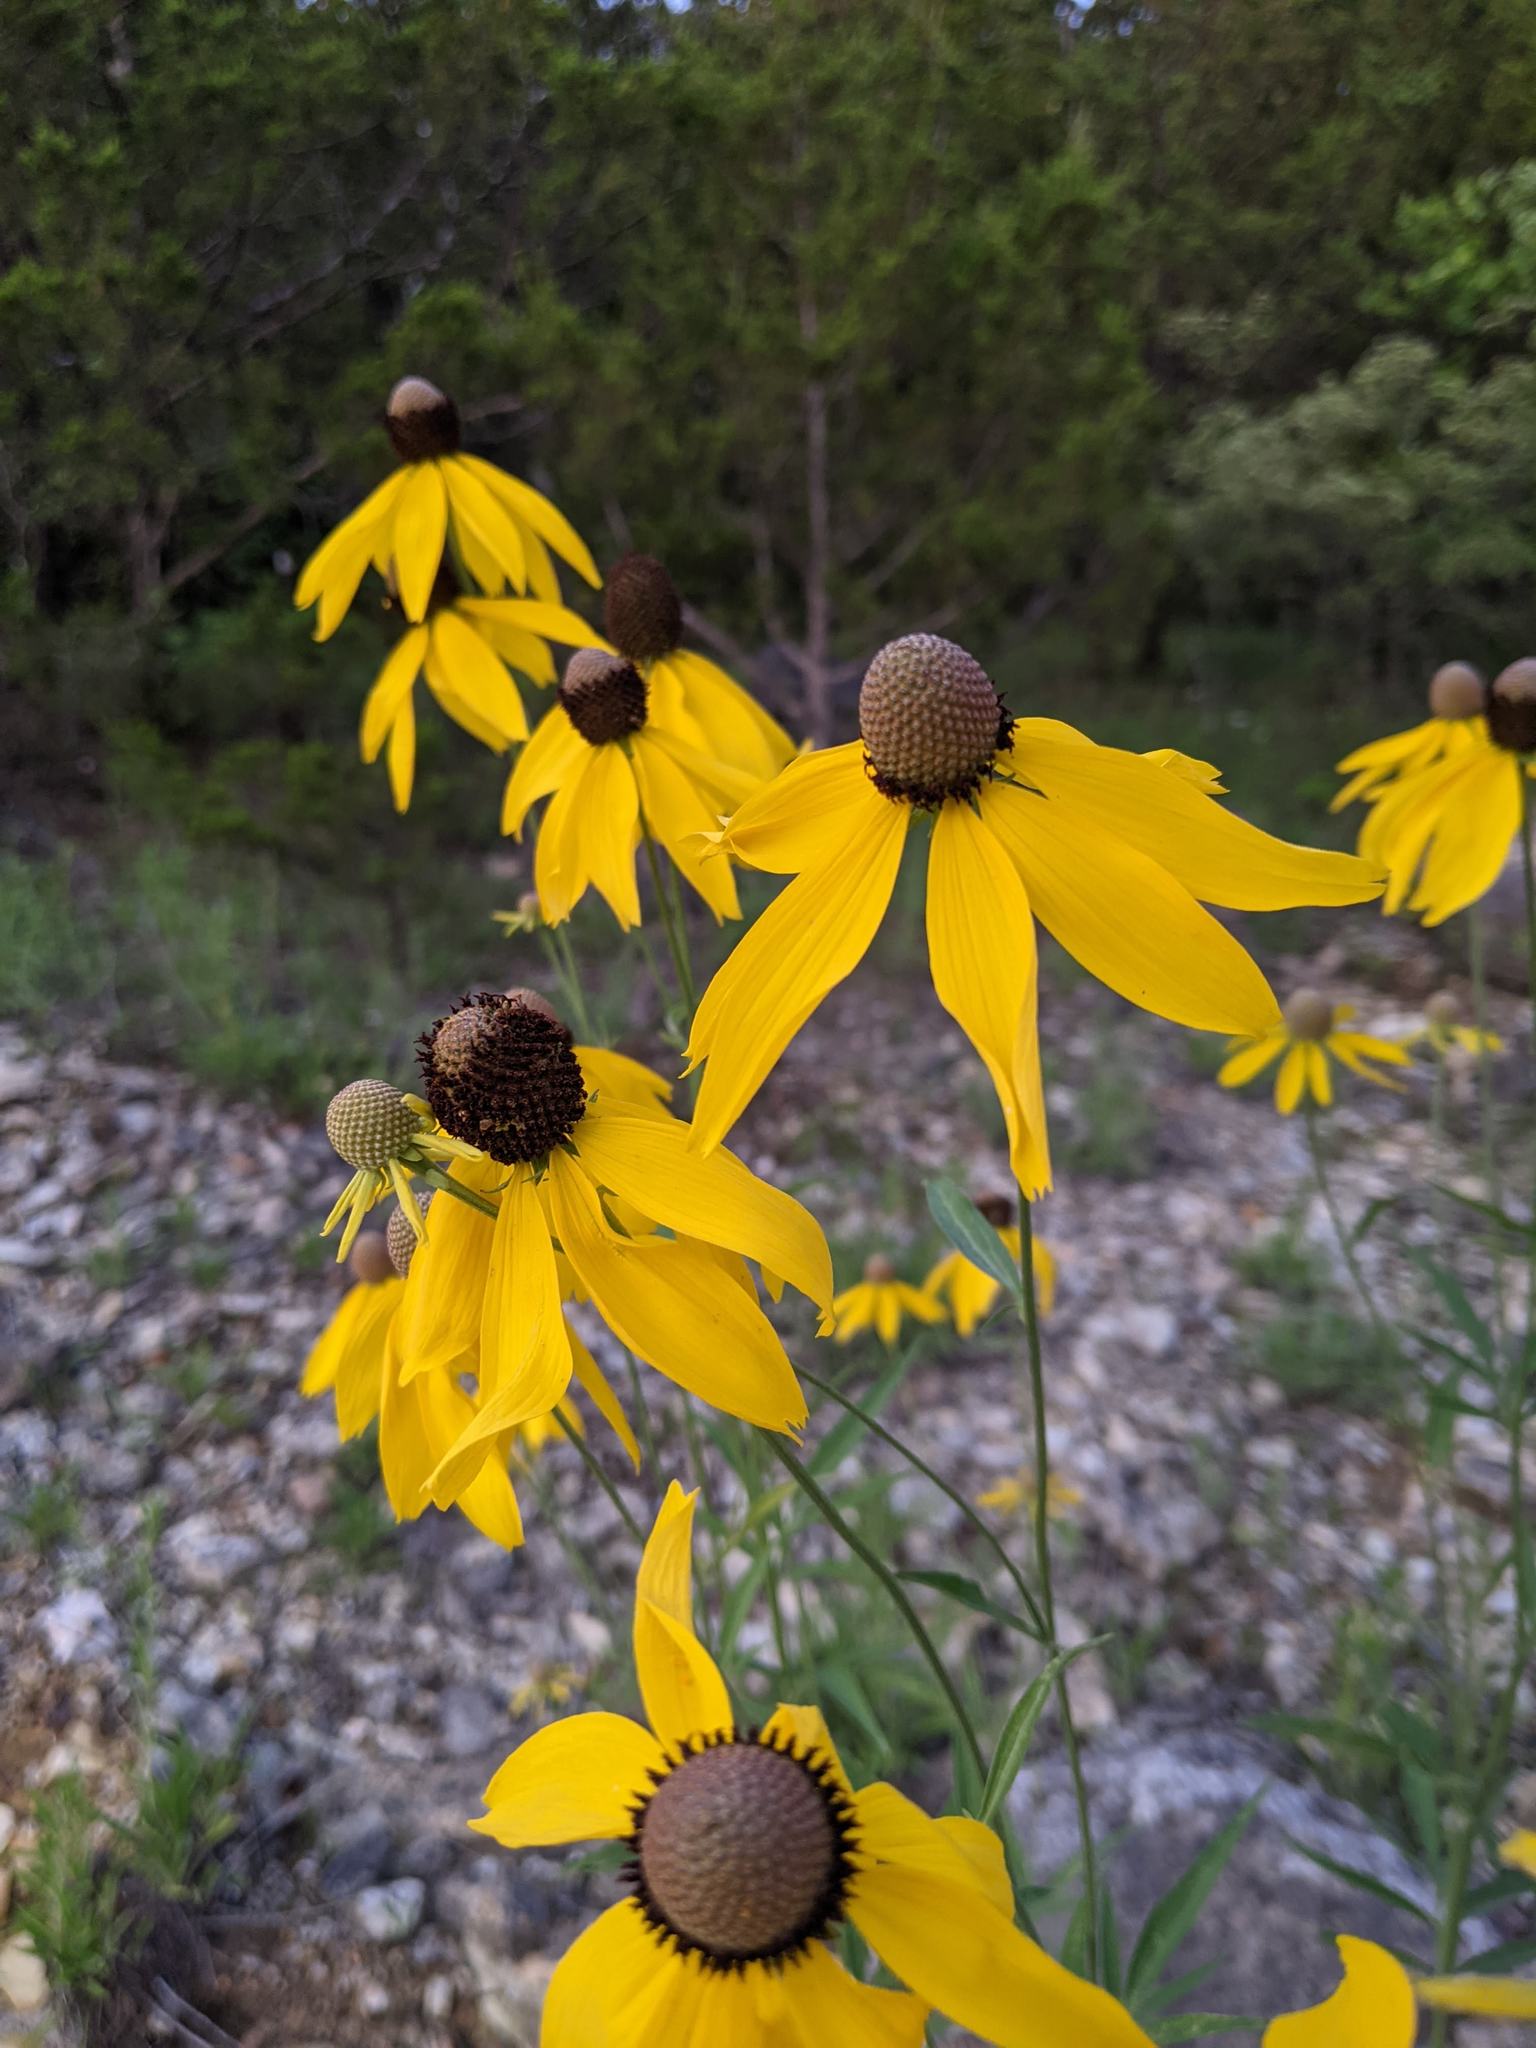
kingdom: Plantae
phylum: Tracheophyta
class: Magnoliopsida
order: Asterales
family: Asteraceae
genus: Ratibida
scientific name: Ratibida pinnata
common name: Drooping prairie-coneflower
